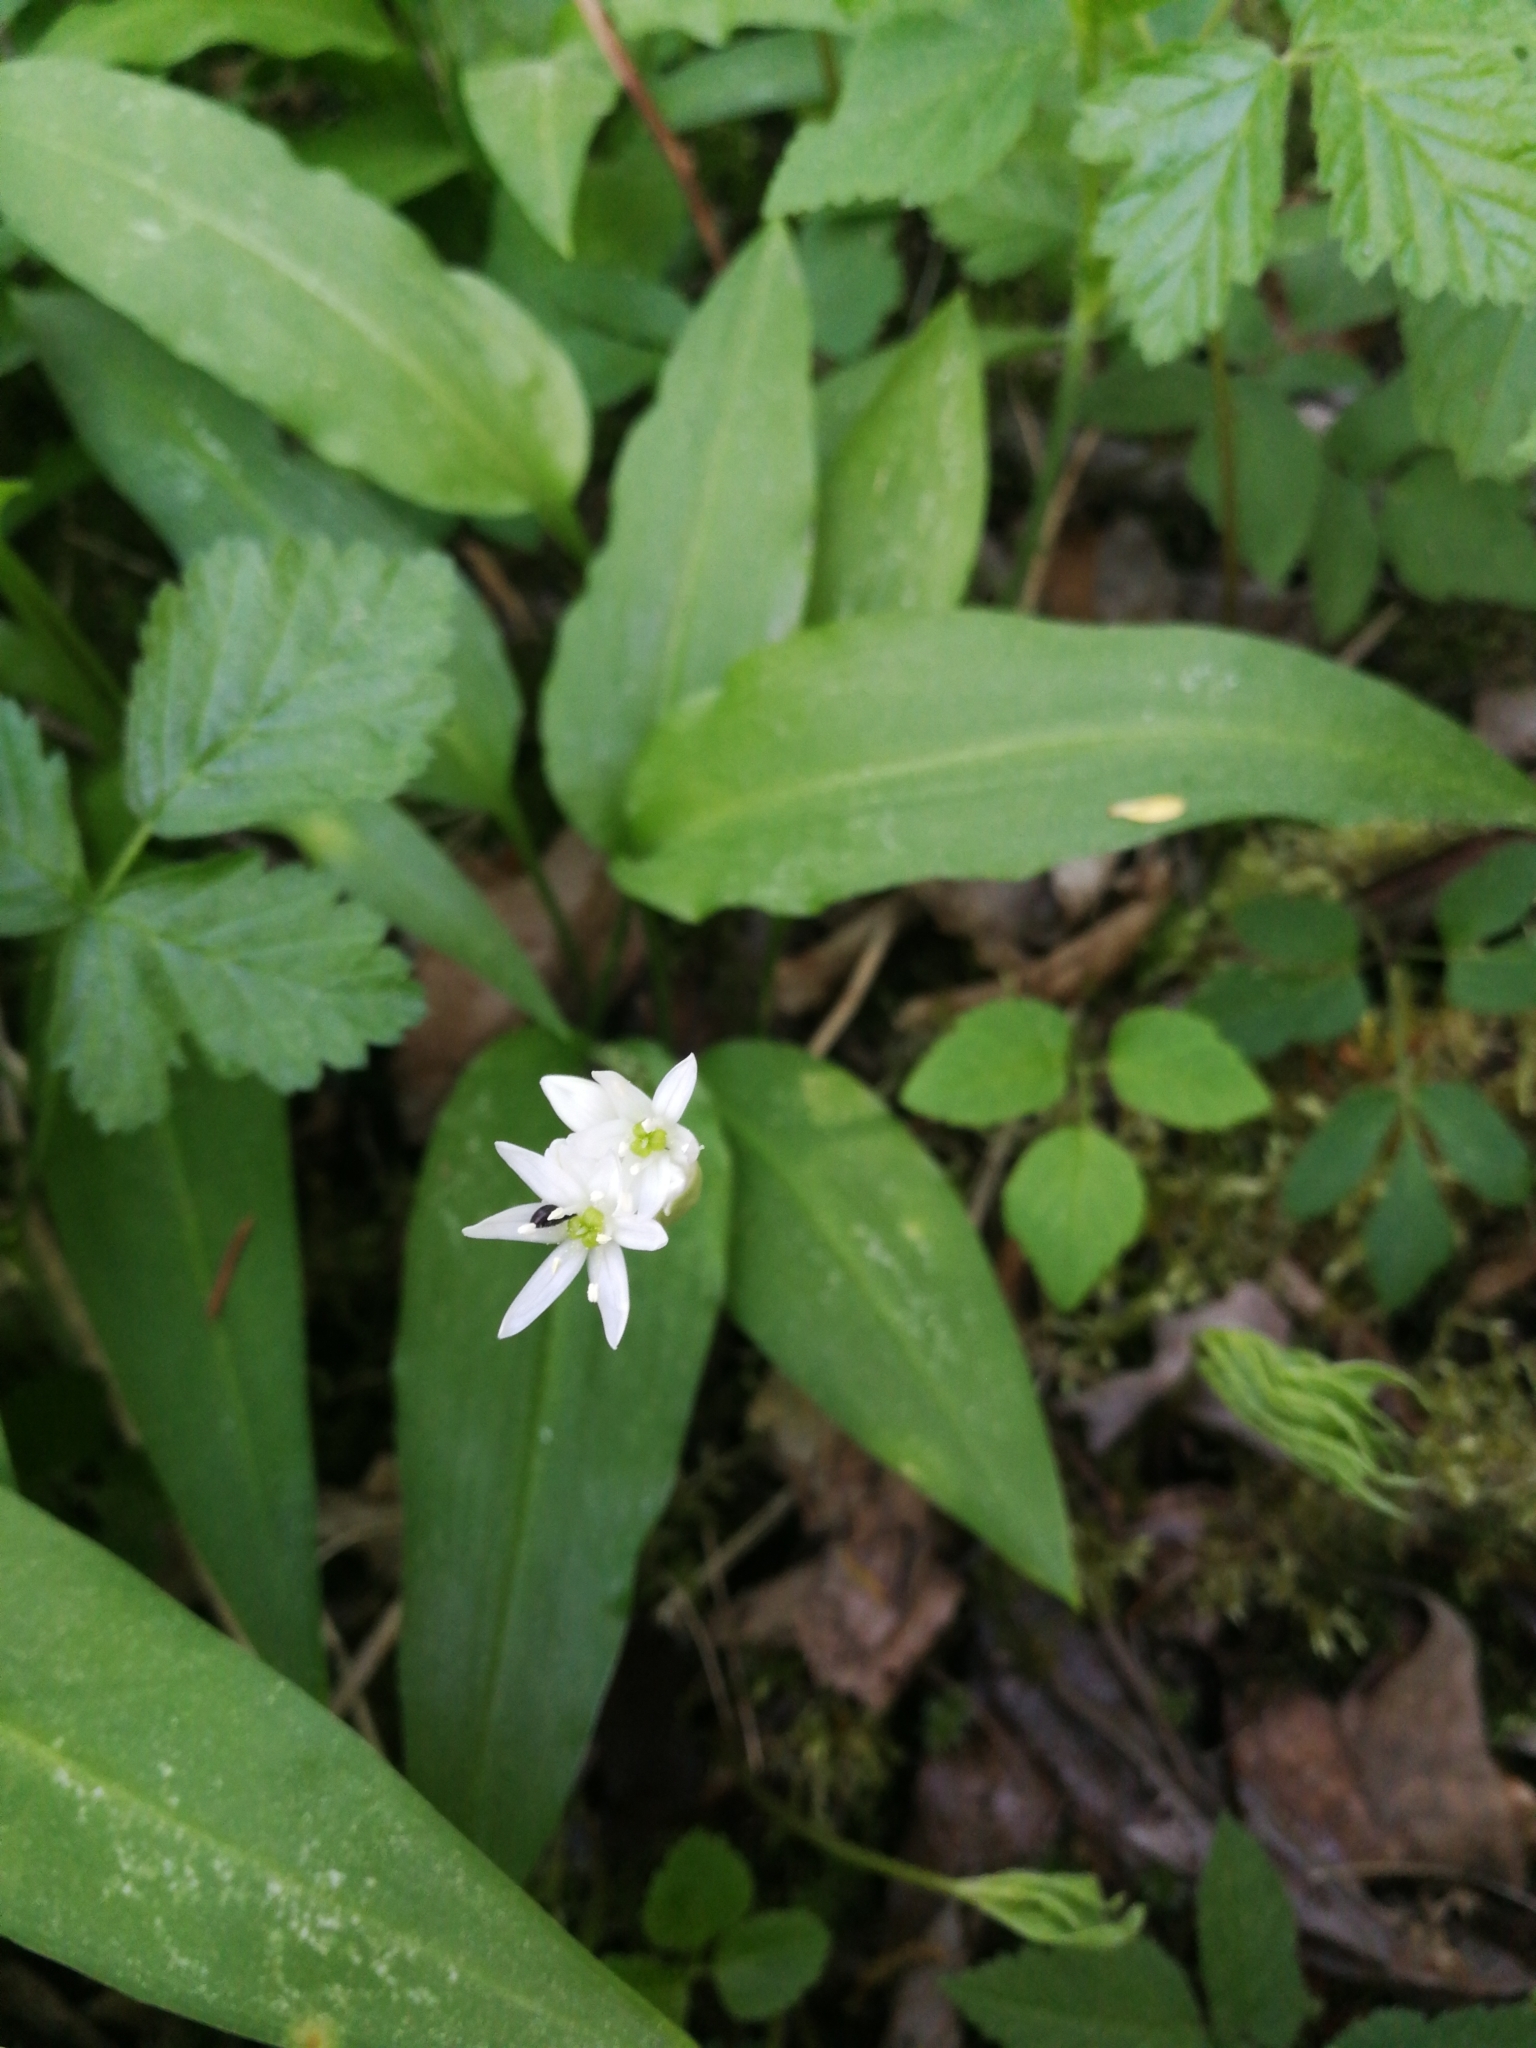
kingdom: Plantae
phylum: Tracheophyta
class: Liliopsida
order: Asparagales
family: Amaryllidaceae
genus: Allium
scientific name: Allium ursinum
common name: Ramsons
